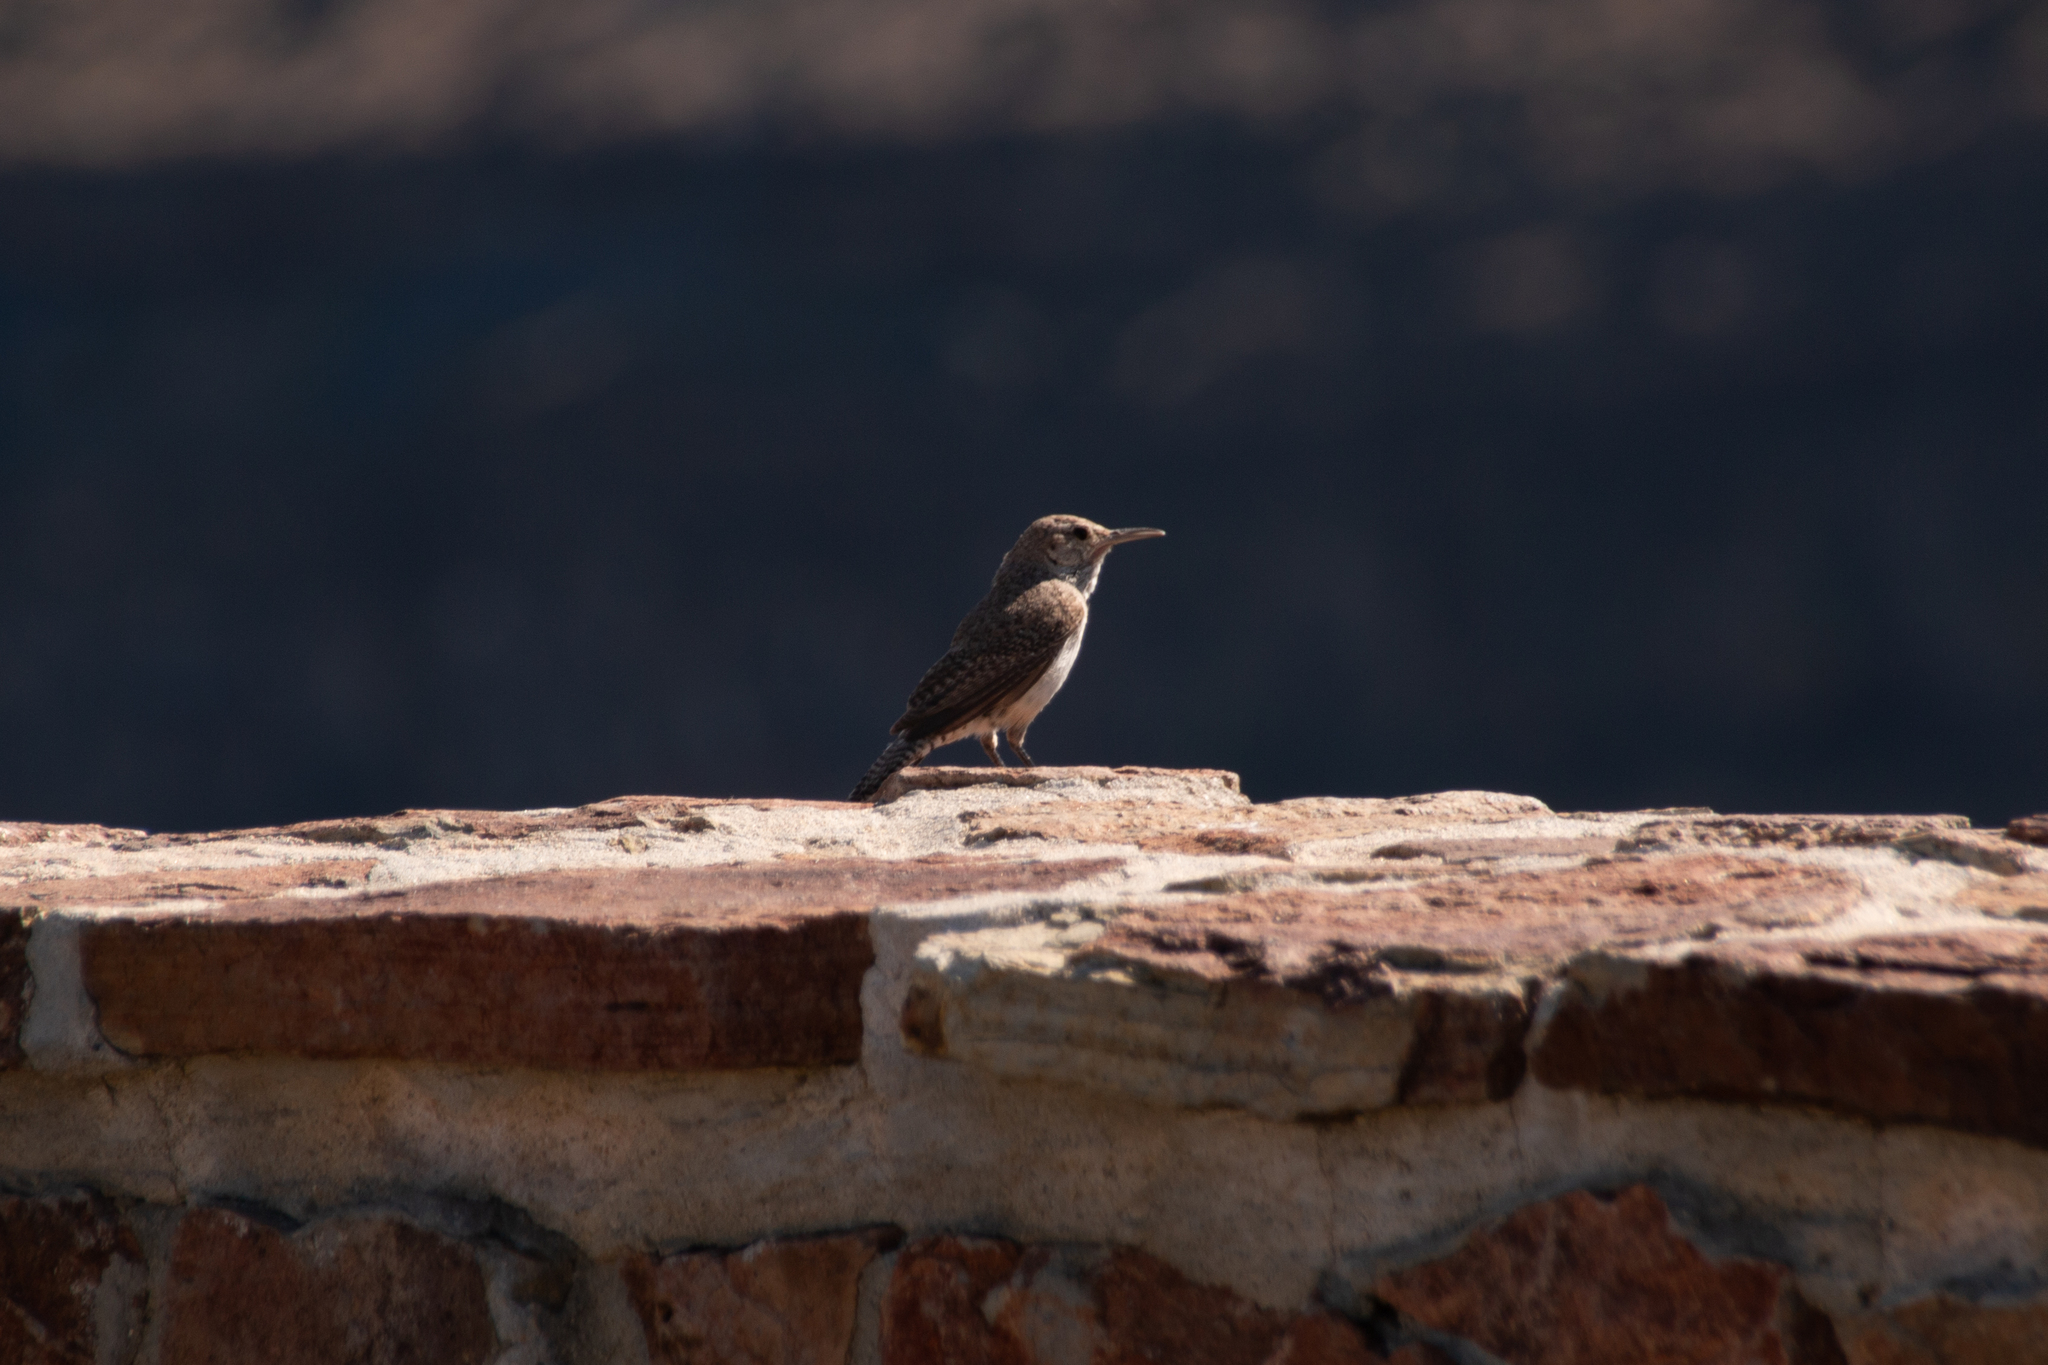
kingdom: Animalia
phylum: Chordata
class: Aves
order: Passeriformes
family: Troglodytidae
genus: Salpinctes
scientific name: Salpinctes obsoletus
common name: Rock wren
